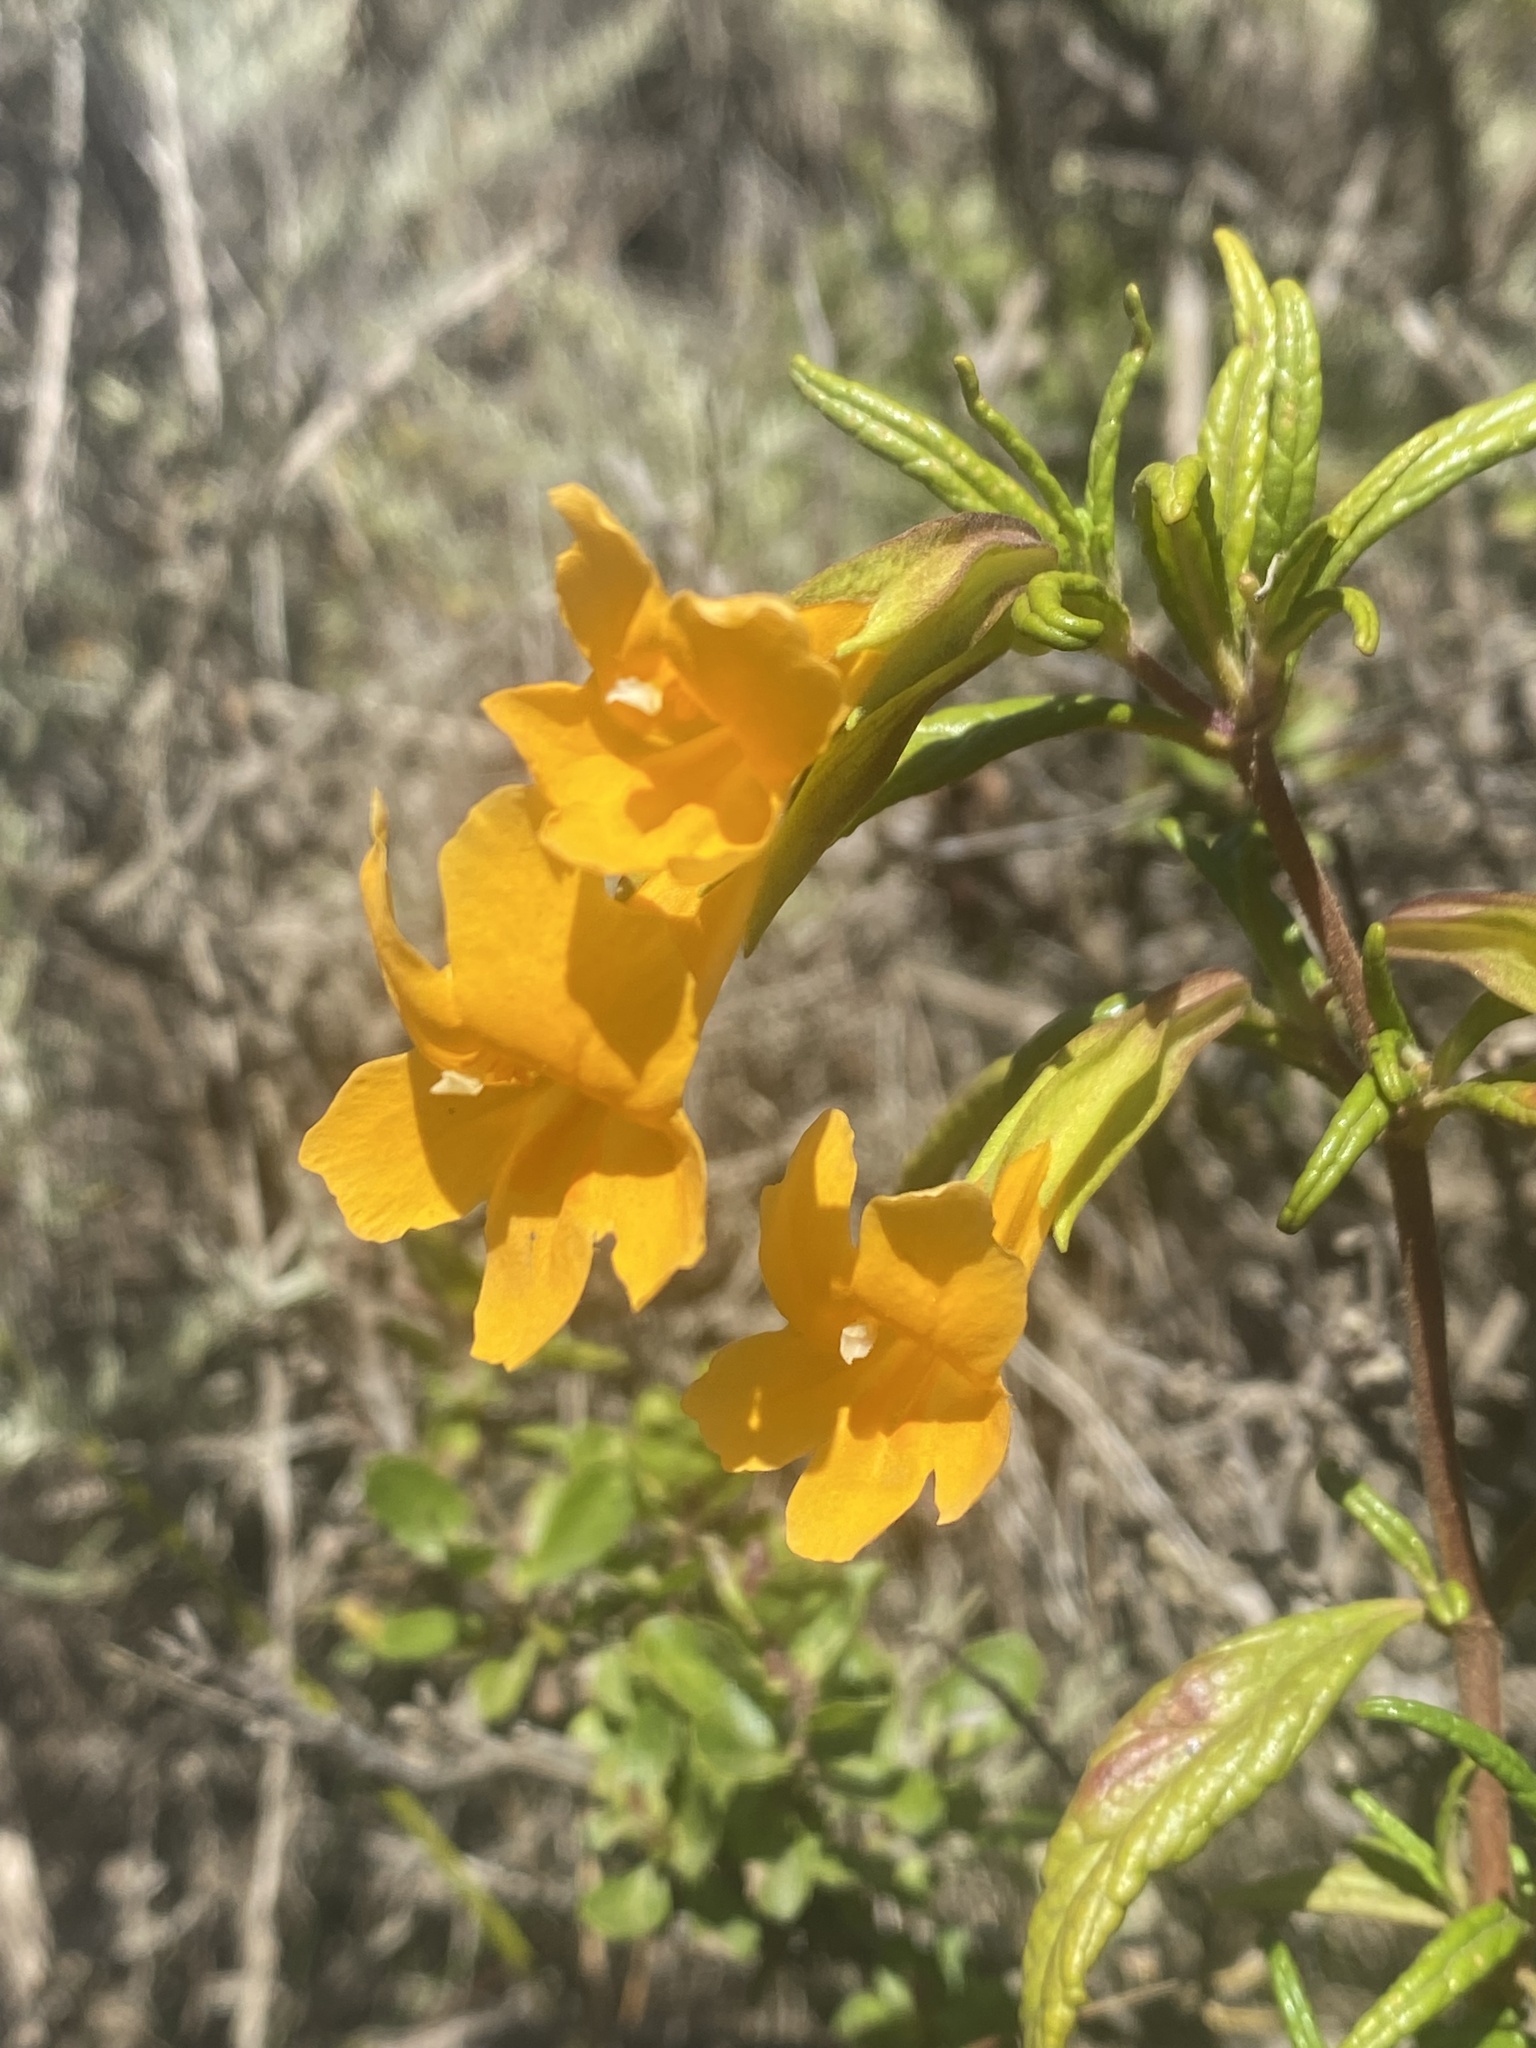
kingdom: Plantae
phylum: Tracheophyta
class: Magnoliopsida
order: Lamiales
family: Phrymaceae
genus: Diplacus
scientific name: Diplacus aurantiacus
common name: Bush monkey-flower
